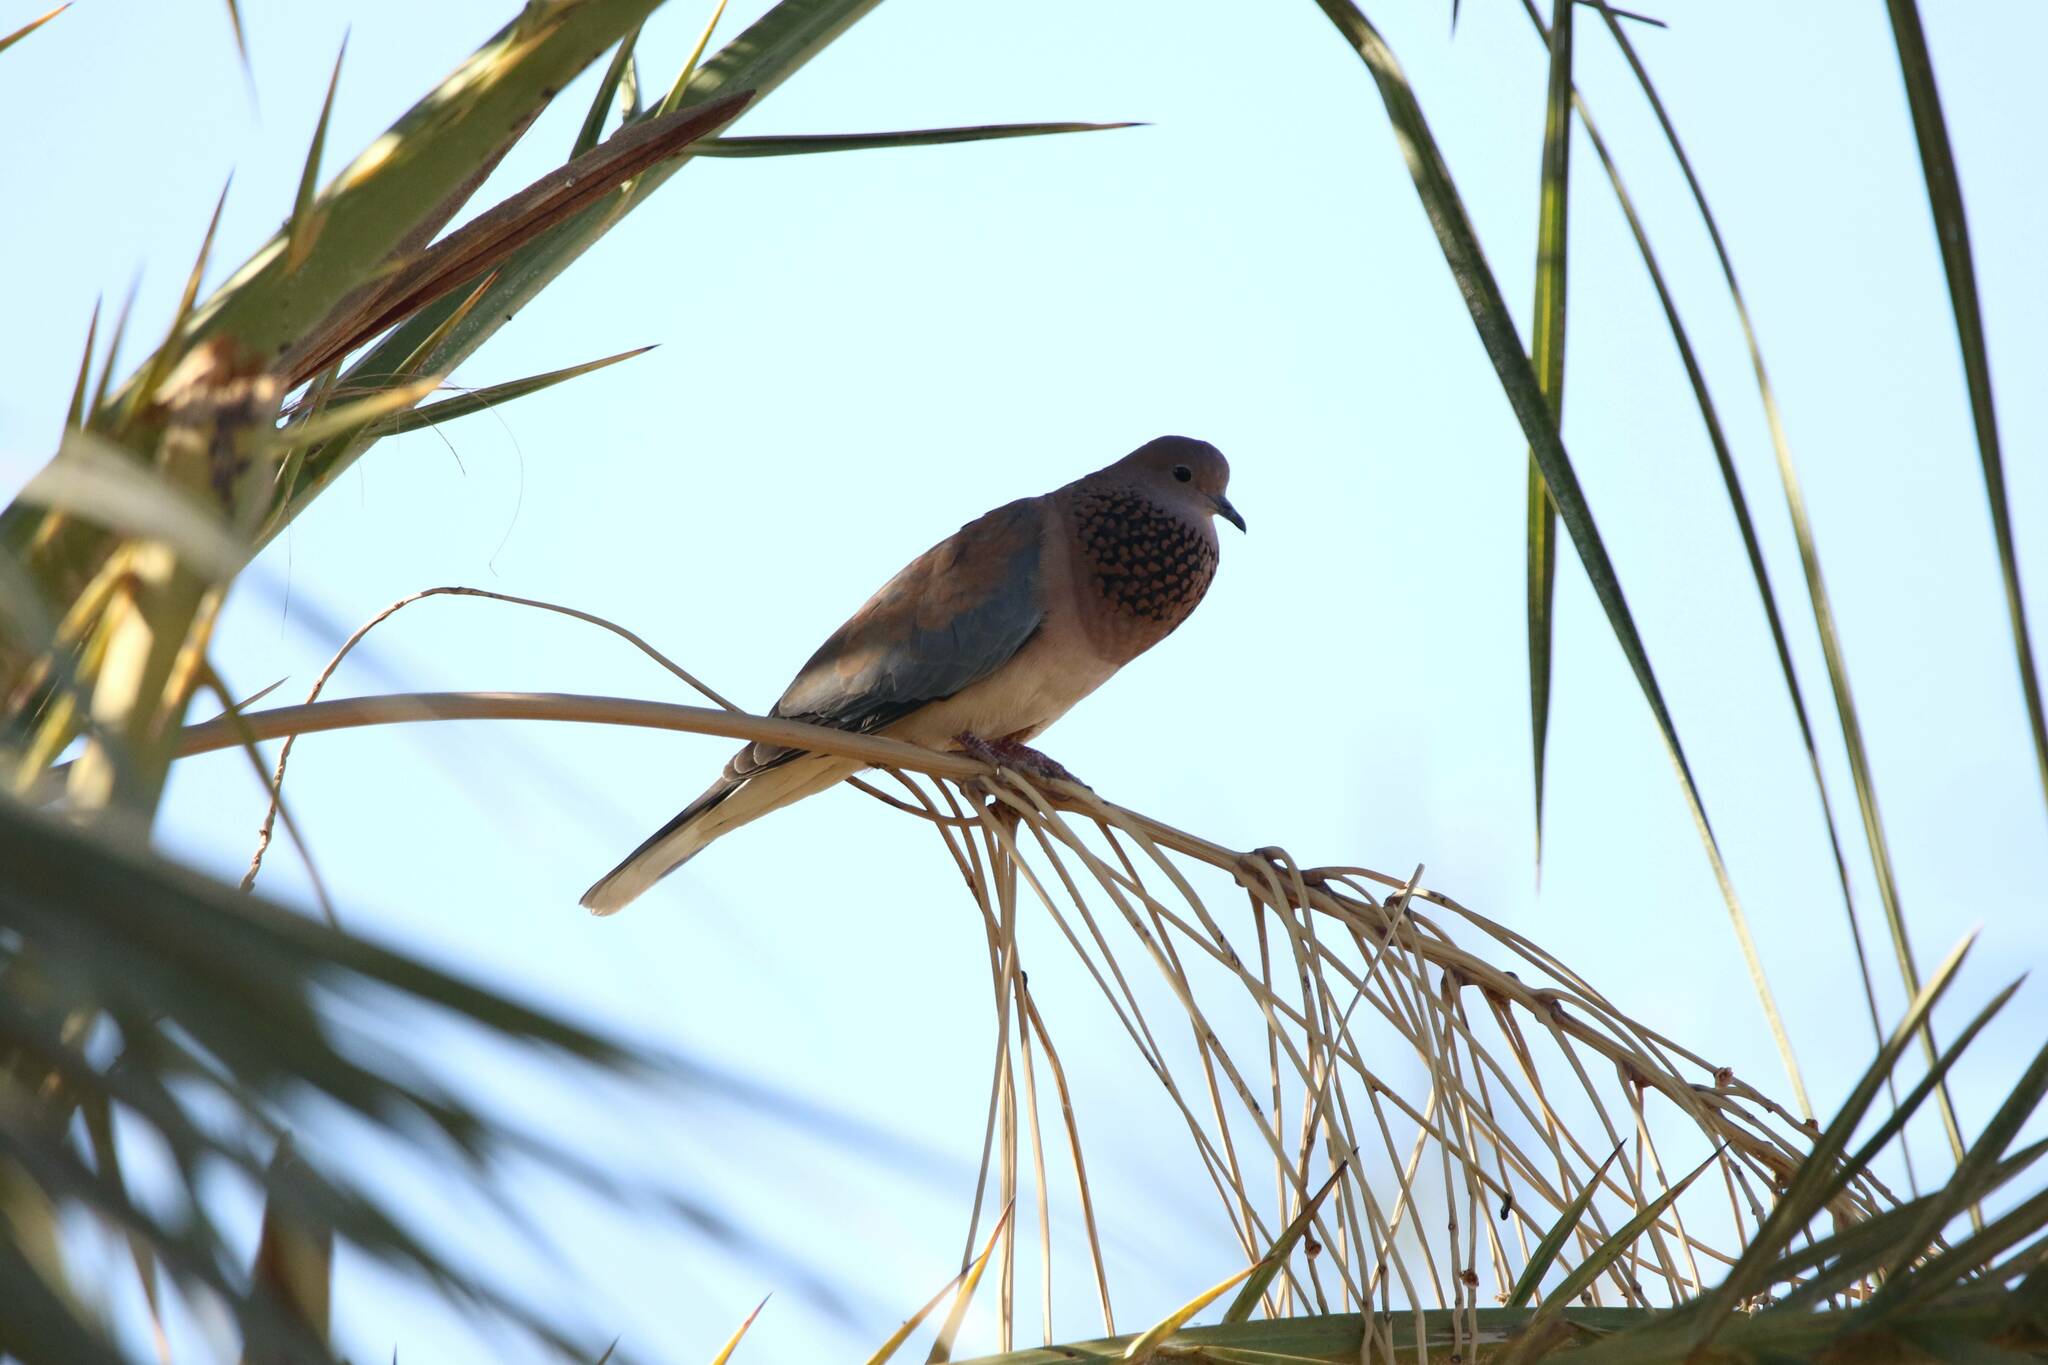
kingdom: Animalia
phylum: Chordata
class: Aves
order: Columbiformes
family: Columbidae
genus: Spilopelia
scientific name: Spilopelia senegalensis
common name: Laughing dove
